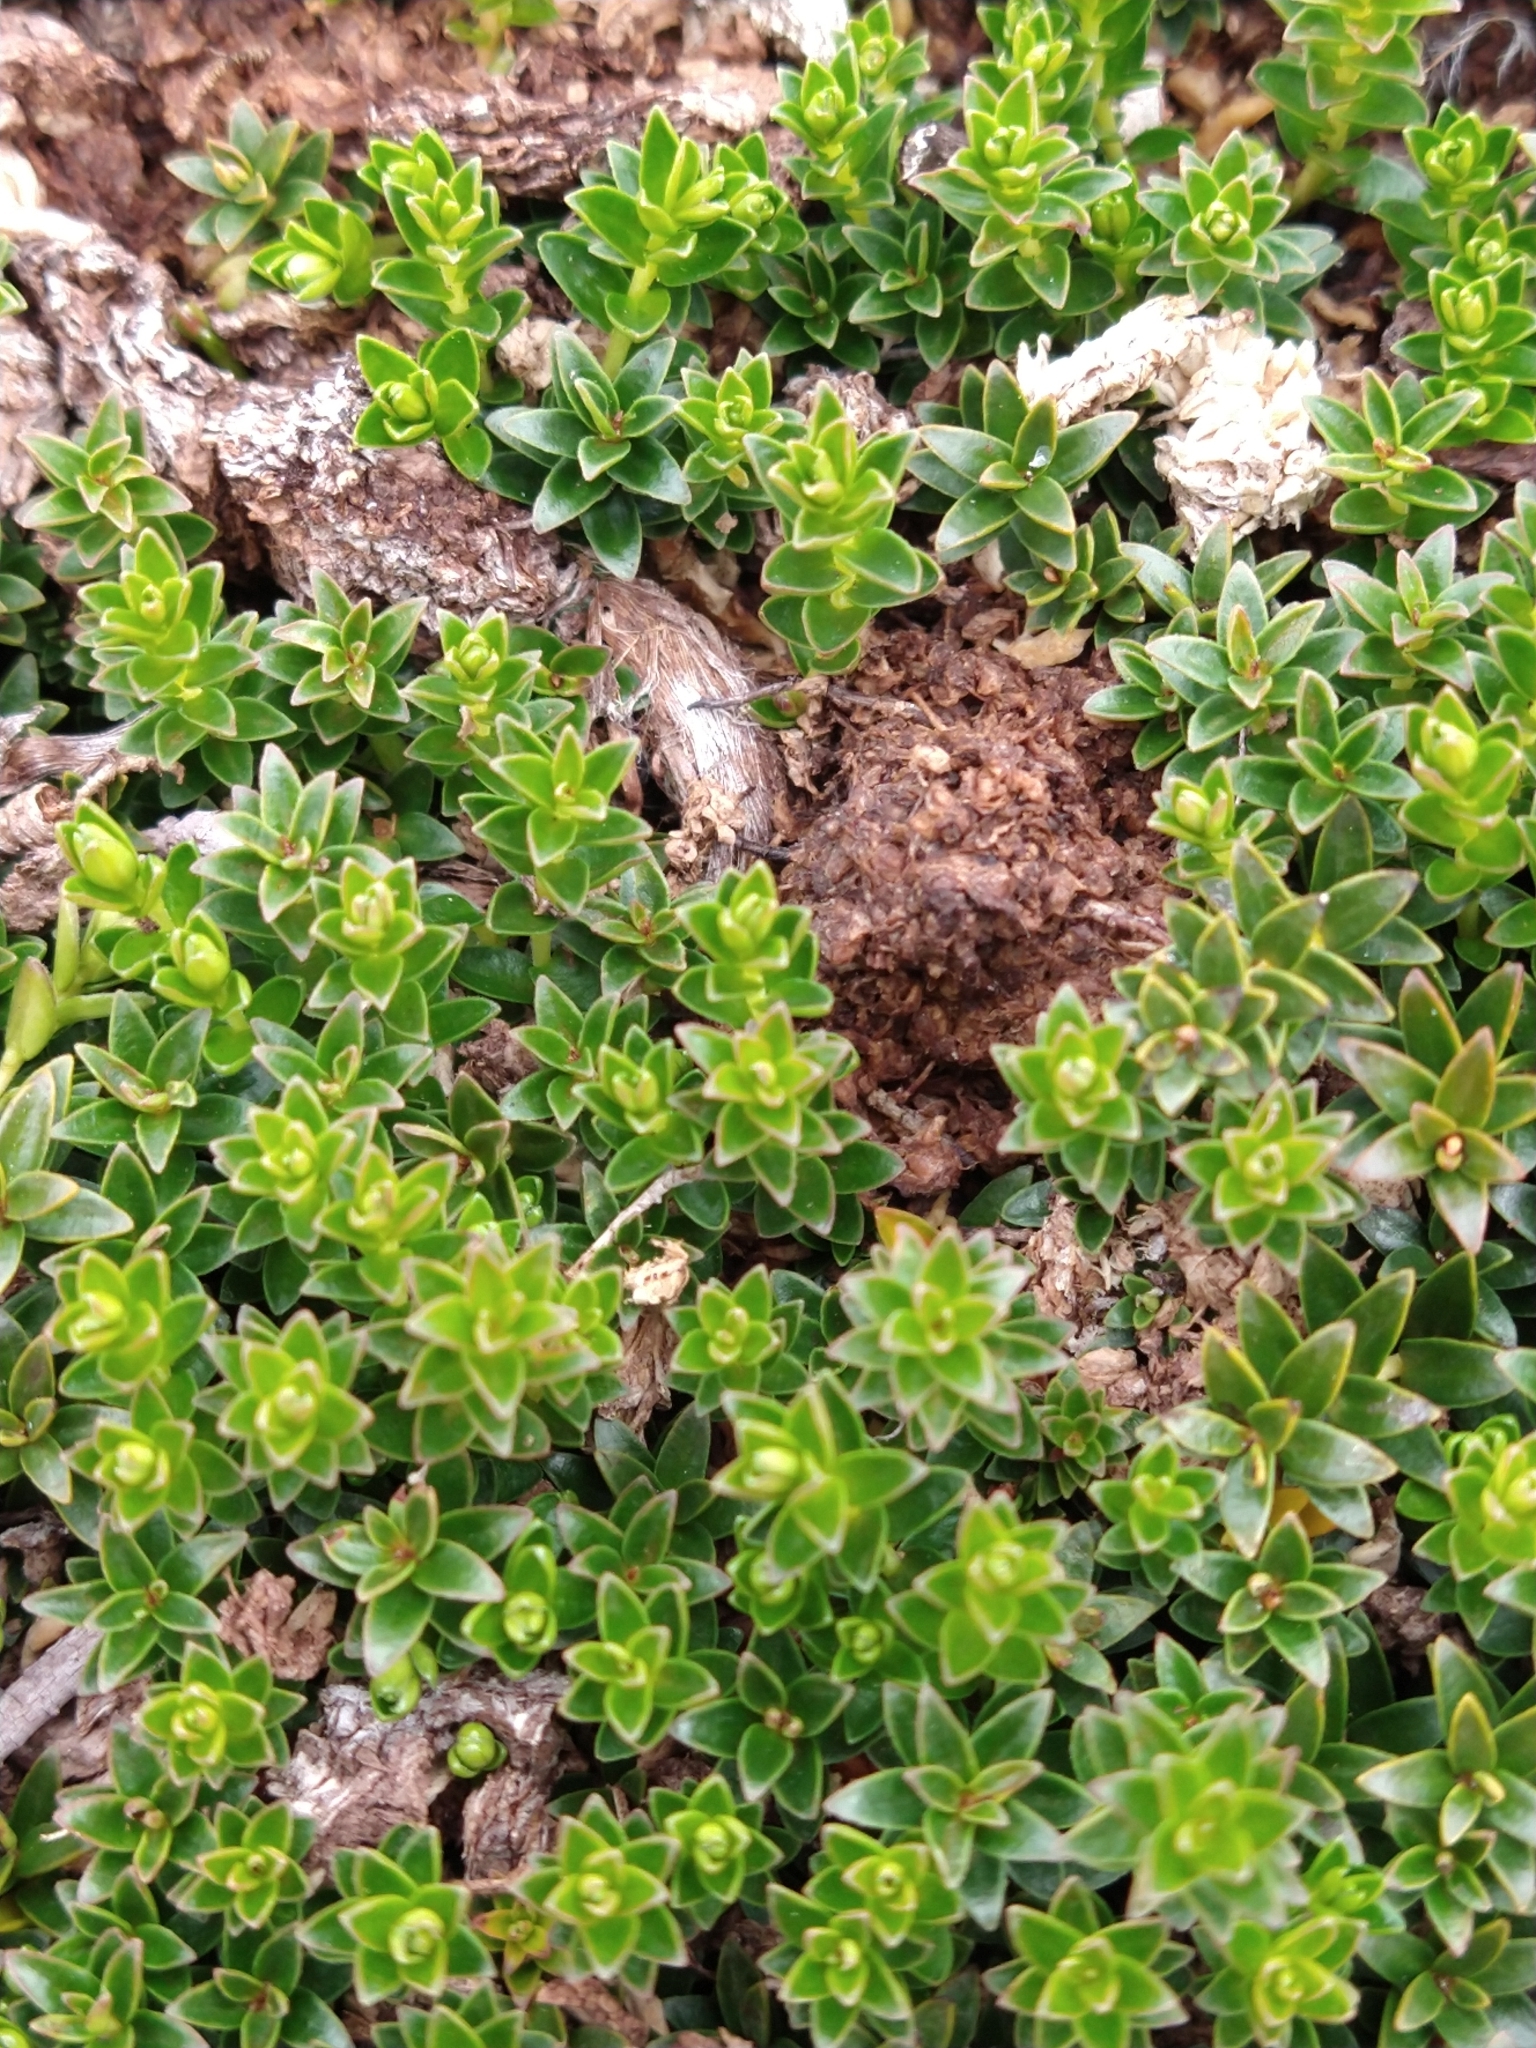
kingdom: Plantae
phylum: Tracheophyta
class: Magnoliopsida
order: Ericales
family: Ericaceae
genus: Gaultheria
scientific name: Gaultheria pumila
